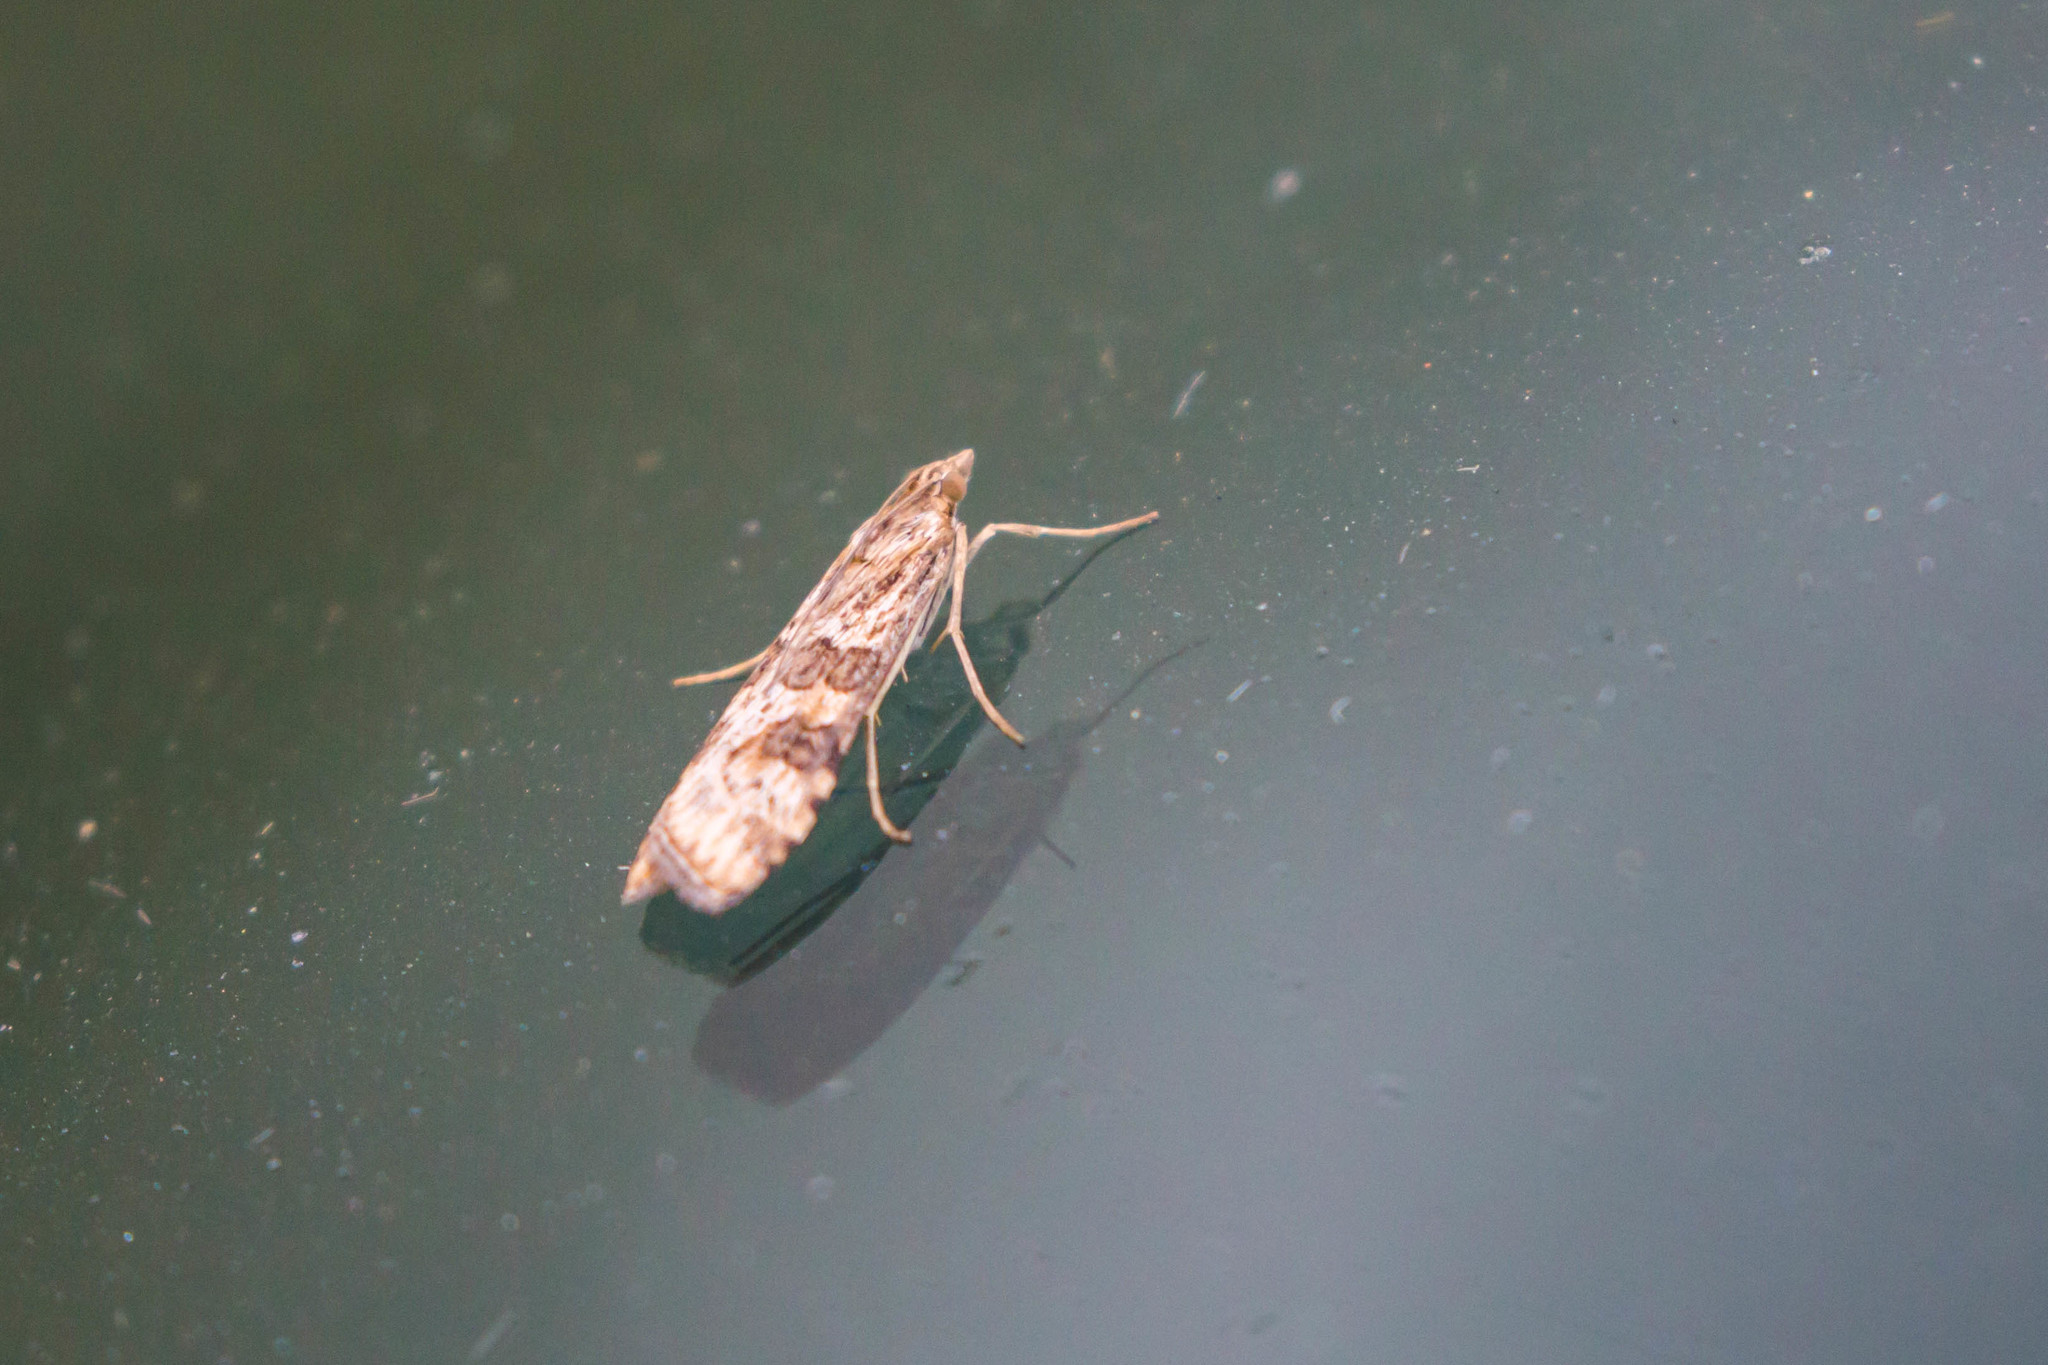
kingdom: Animalia
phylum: Arthropoda
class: Insecta
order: Lepidoptera
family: Crambidae
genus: Nomophila
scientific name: Nomophila nearctica
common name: American rush veneer
